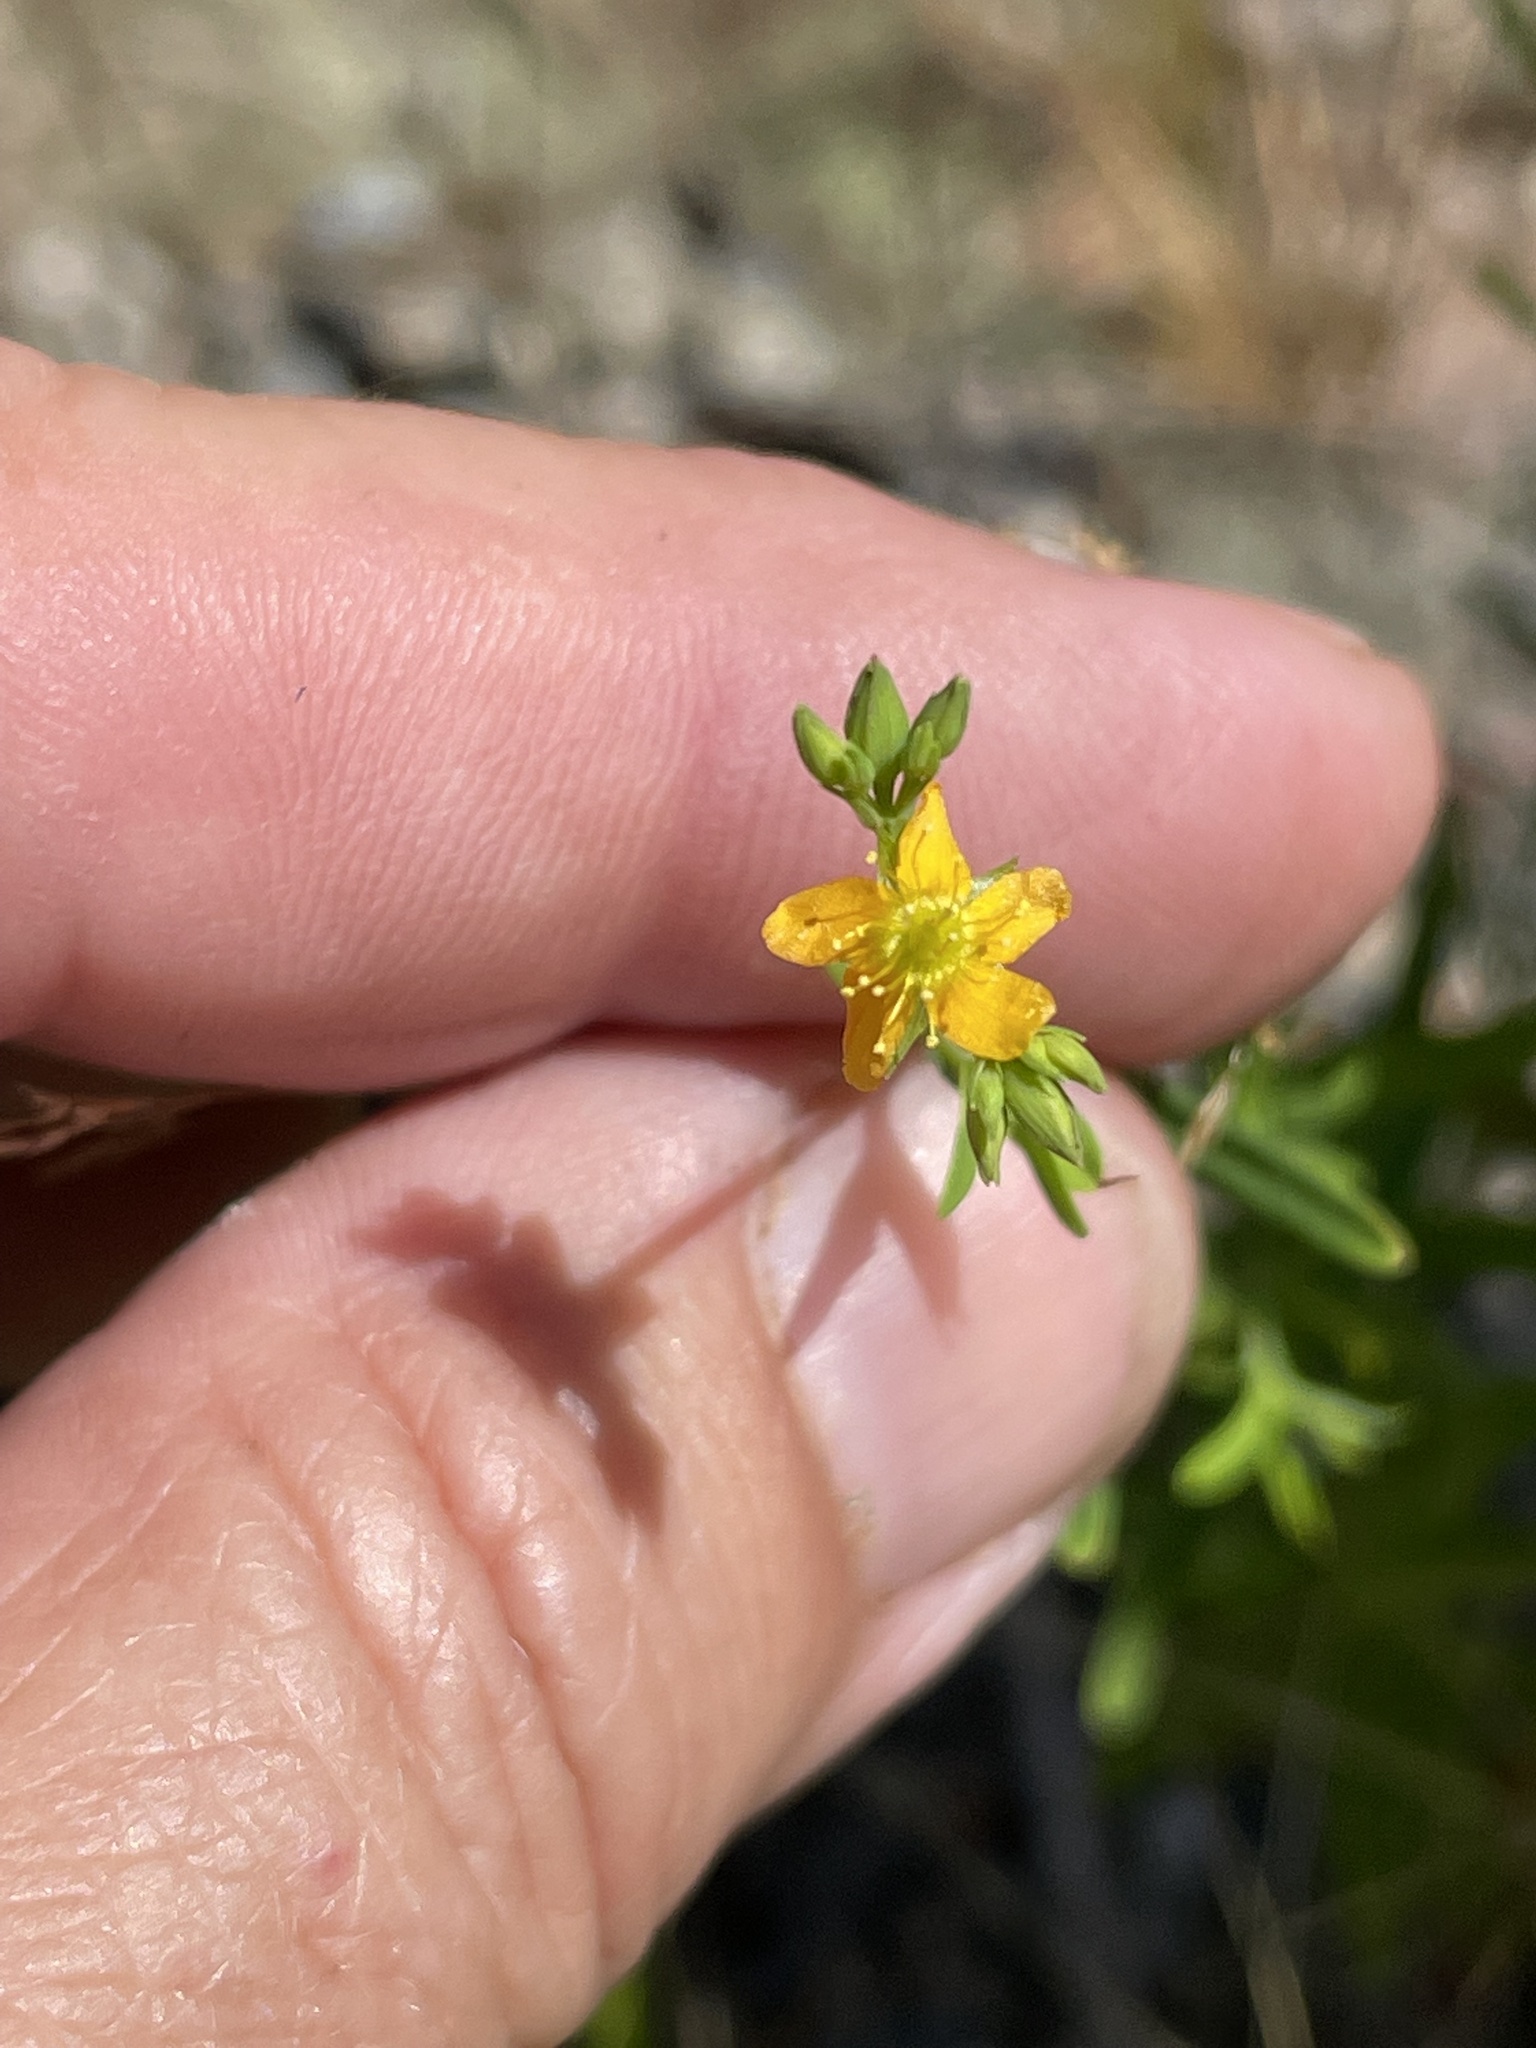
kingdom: Plantae
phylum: Tracheophyta
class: Magnoliopsida
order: Malpighiales
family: Hypericaceae
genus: Hypericum
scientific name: Hypericum canadense
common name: Irish st. john's-wort
